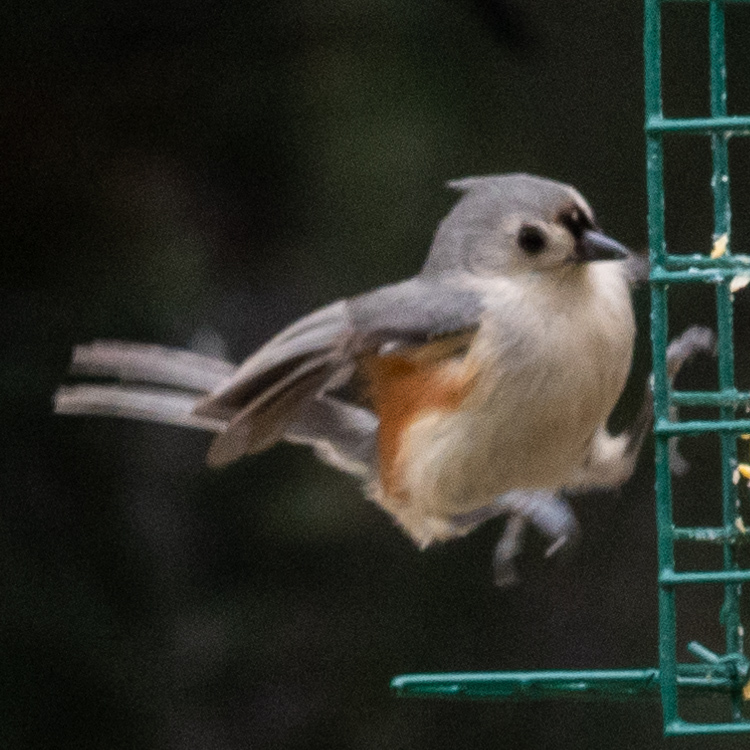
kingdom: Animalia
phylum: Chordata
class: Aves
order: Passeriformes
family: Paridae
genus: Baeolophus
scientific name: Baeolophus bicolor
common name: Tufted titmouse
